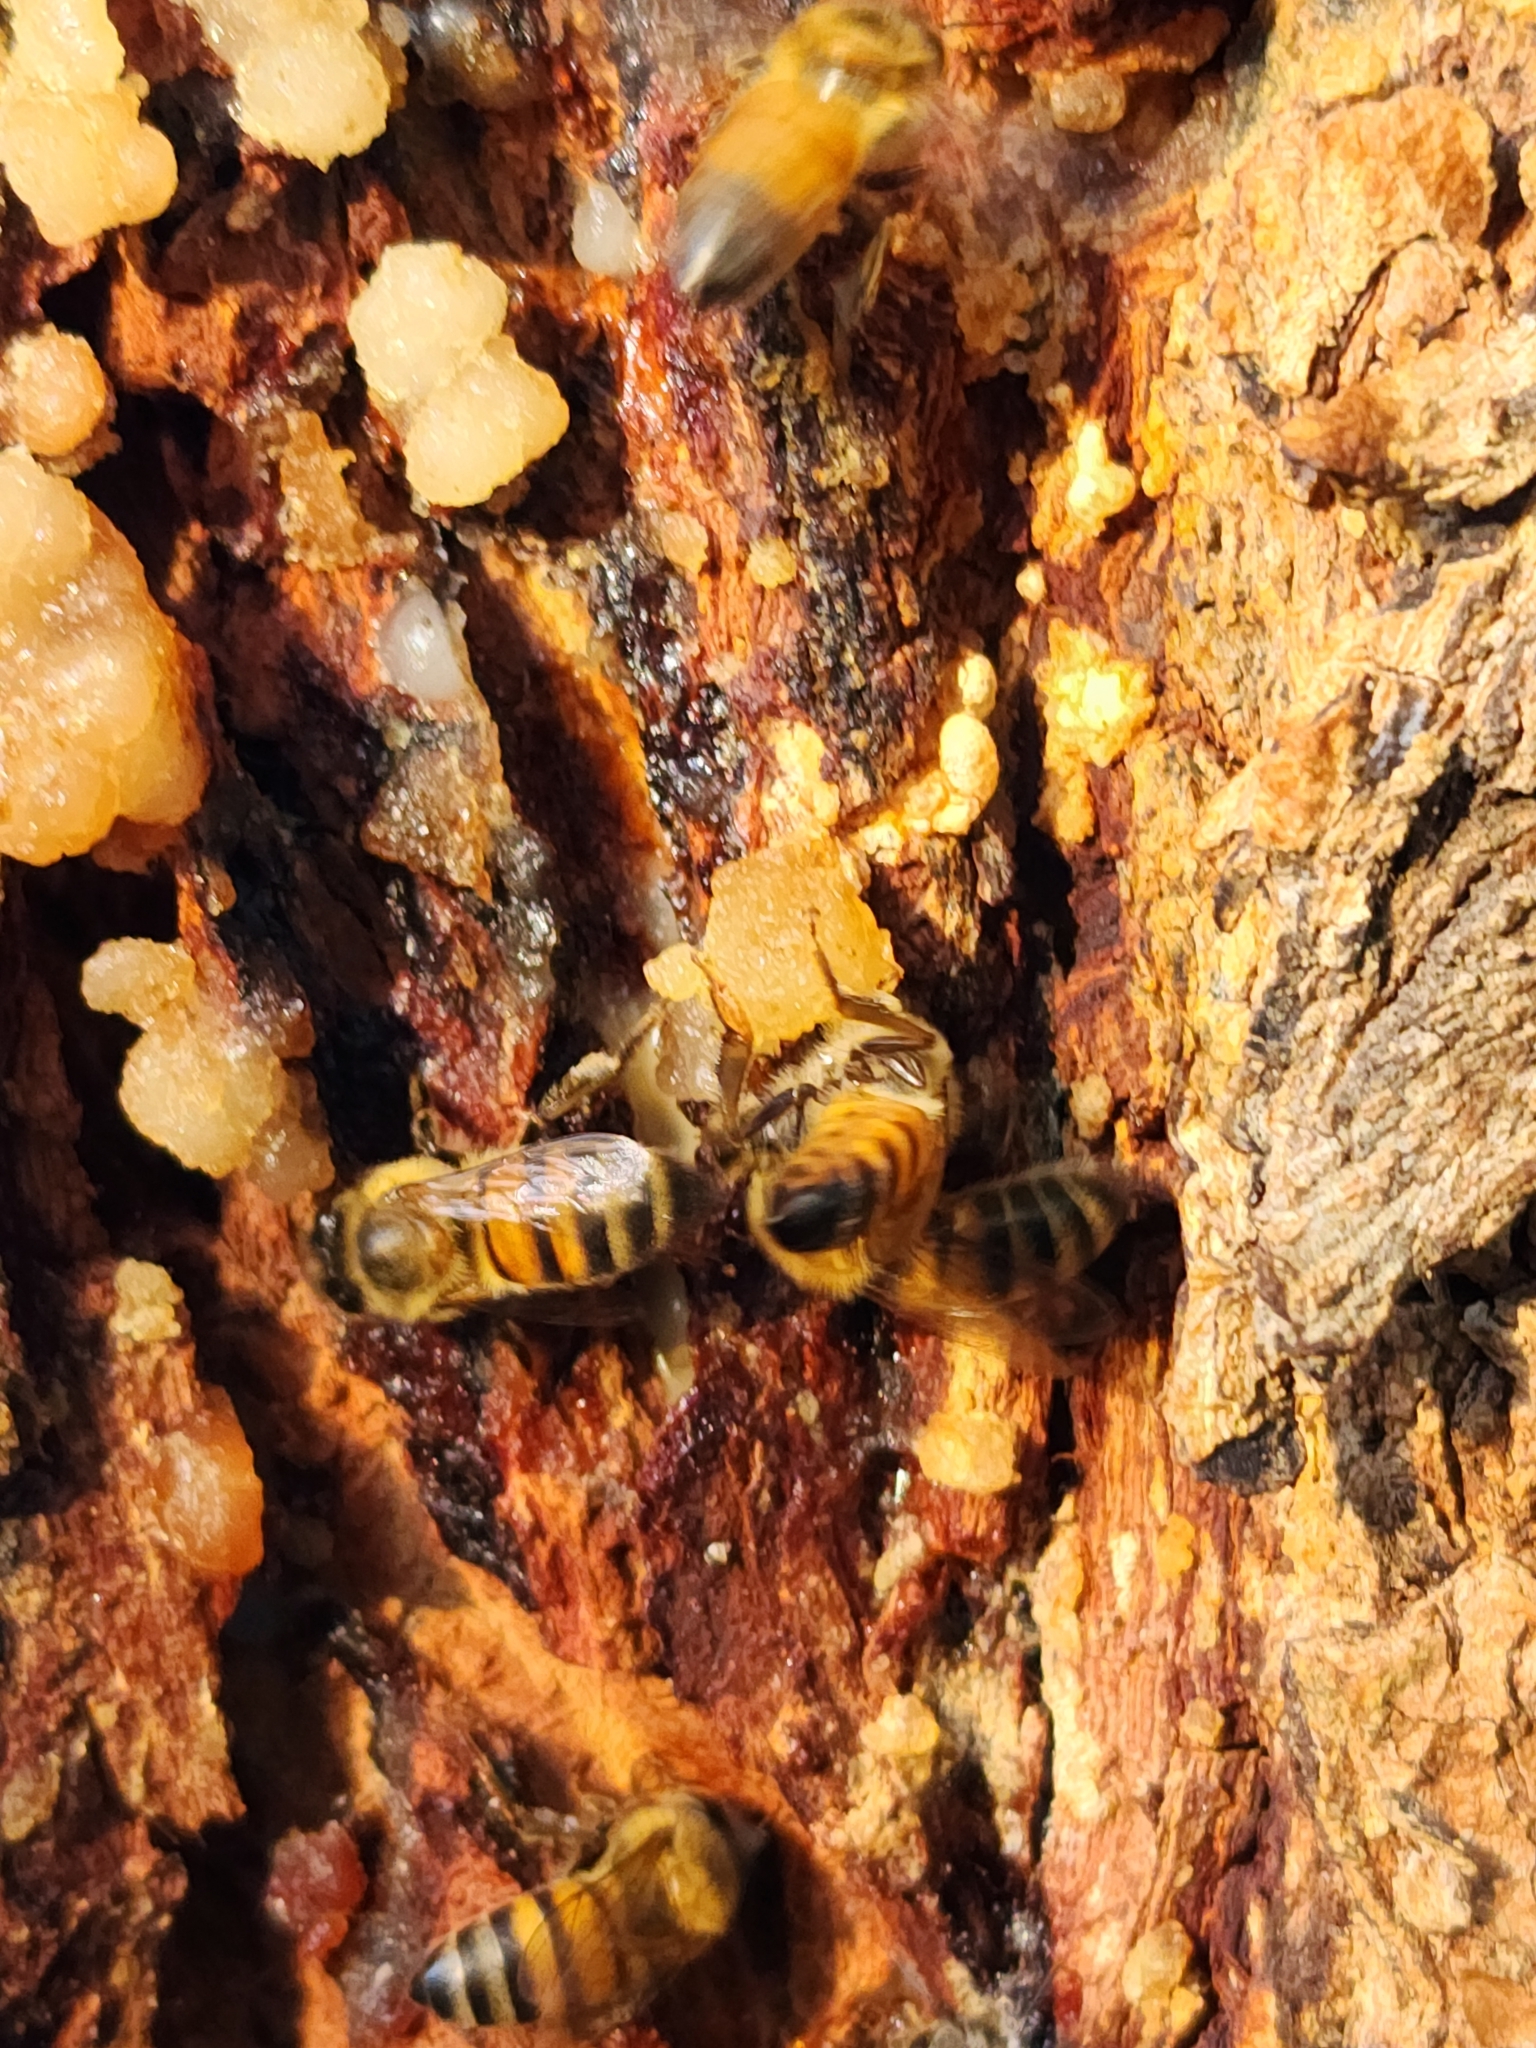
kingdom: Animalia
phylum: Arthropoda
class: Insecta
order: Hymenoptera
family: Apidae
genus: Apis
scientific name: Apis mellifera
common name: Honey bee
